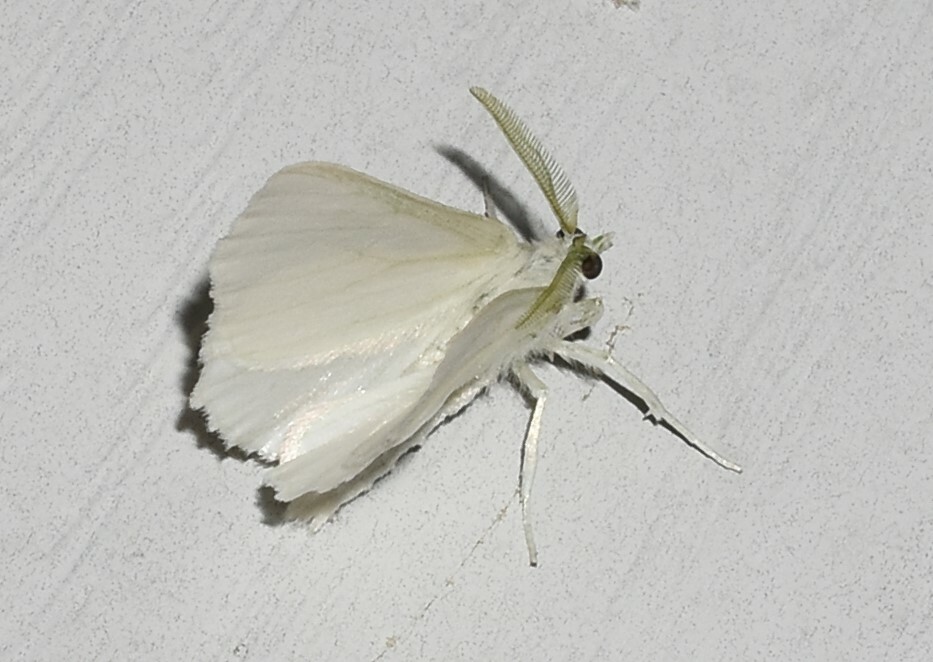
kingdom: Animalia
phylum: Arthropoda
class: Insecta
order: Lepidoptera
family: Geometridae
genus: Ennomos
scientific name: Ennomos subsignaria
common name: Elm spanworm
